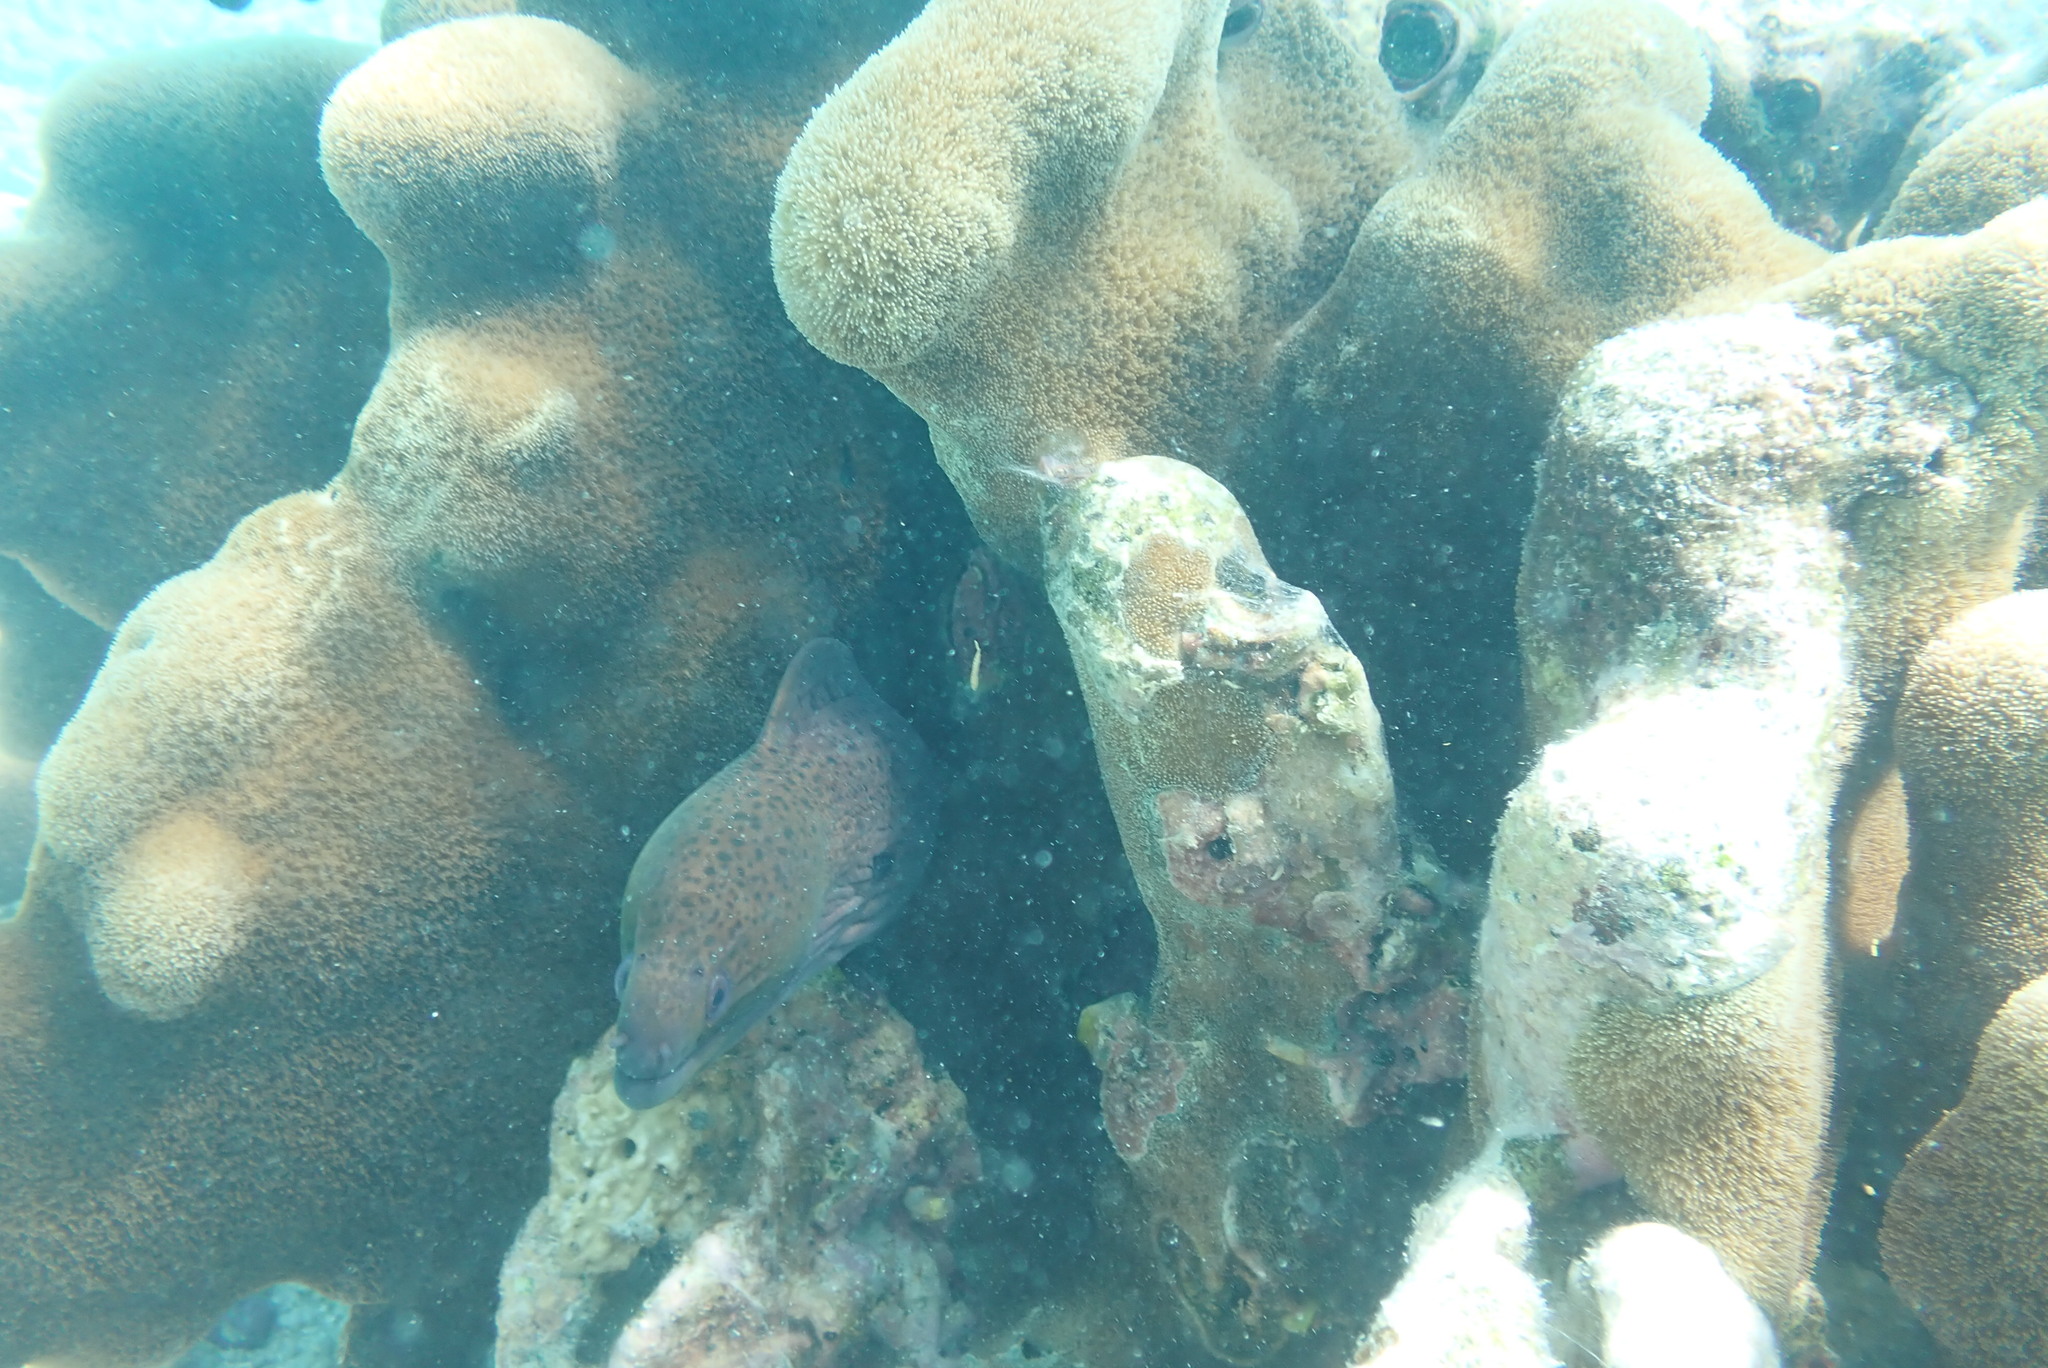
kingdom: Animalia
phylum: Chordata
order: Anguilliformes
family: Muraenidae
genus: Gymnothorax
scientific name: Gymnothorax javanicus
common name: Giant moray
